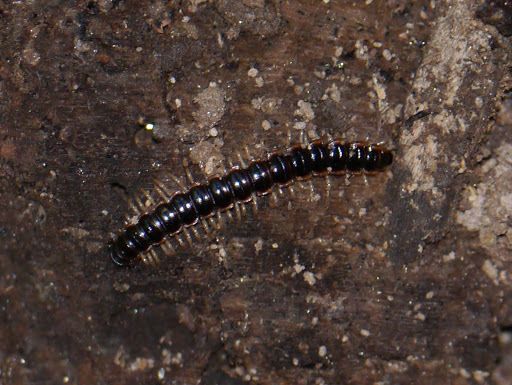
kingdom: Animalia
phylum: Arthropoda
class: Diplopoda
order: Polydesmida
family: Paradoxosomatidae
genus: Oxidus
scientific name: Oxidus gracilis
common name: Greenhouse millipede
